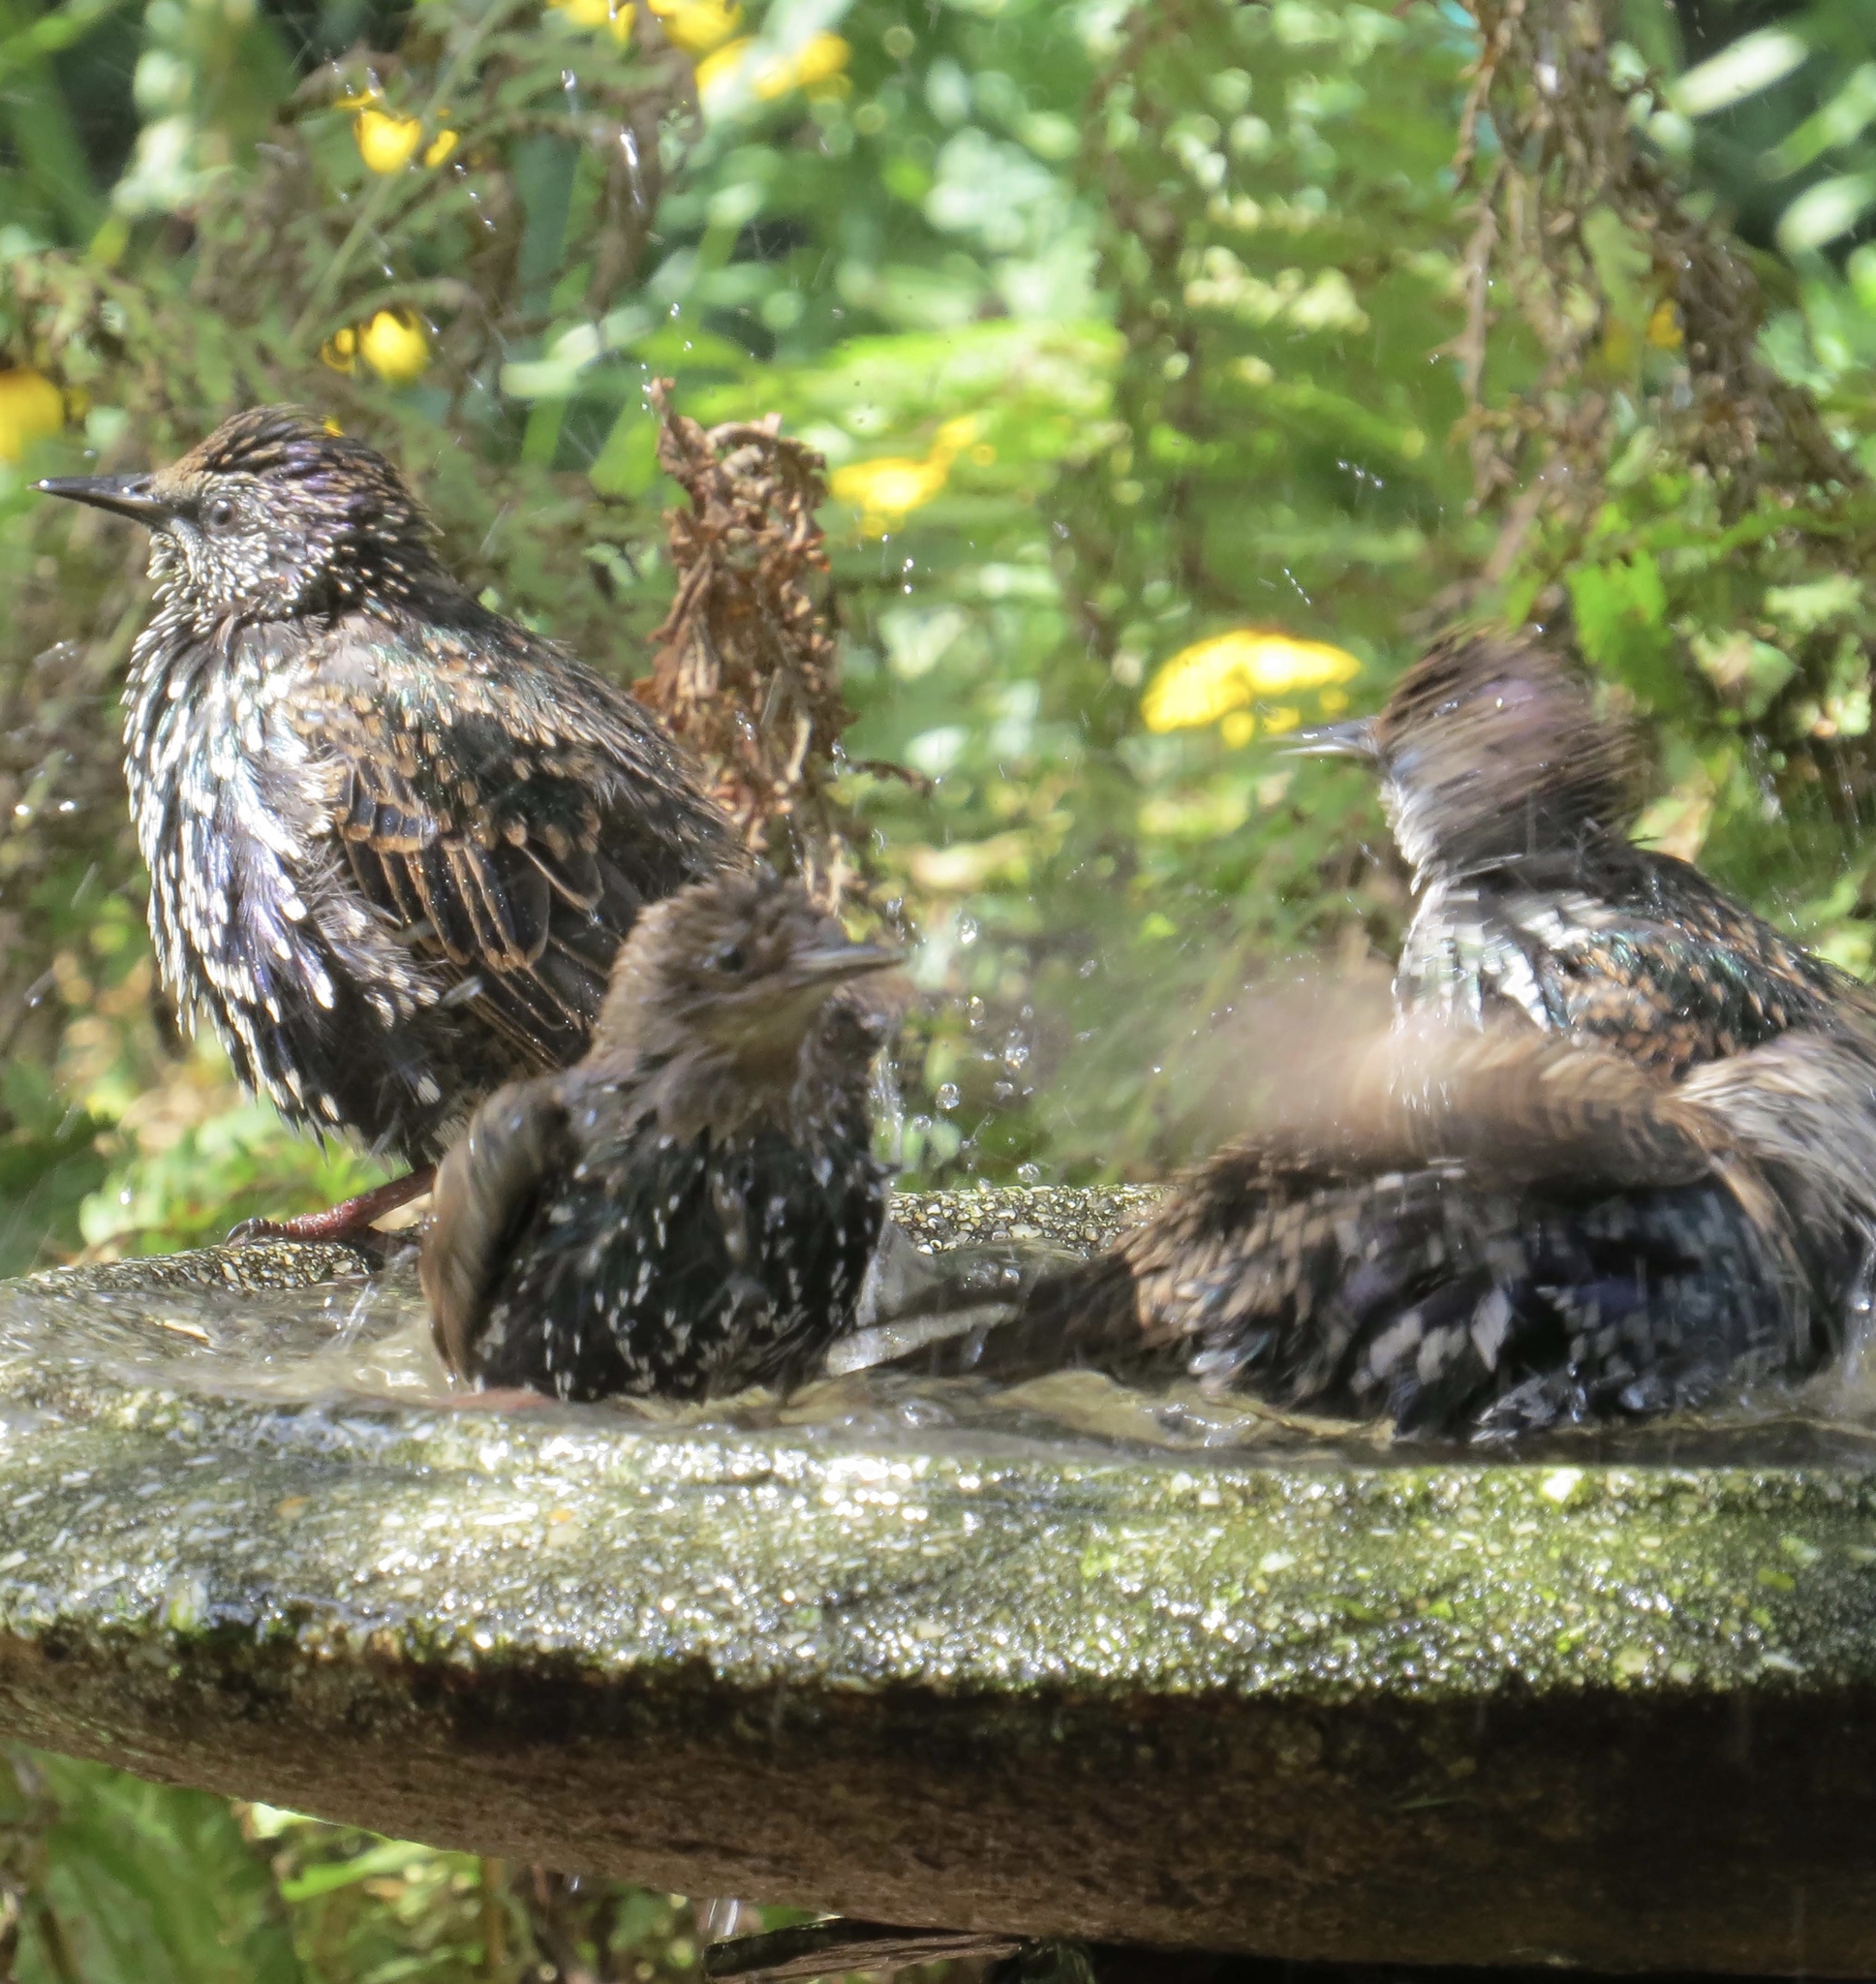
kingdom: Animalia
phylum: Chordata
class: Aves
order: Passeriformes
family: Sturnidae
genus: Sturnus
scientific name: Sturnus vulgaris
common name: Common starling
